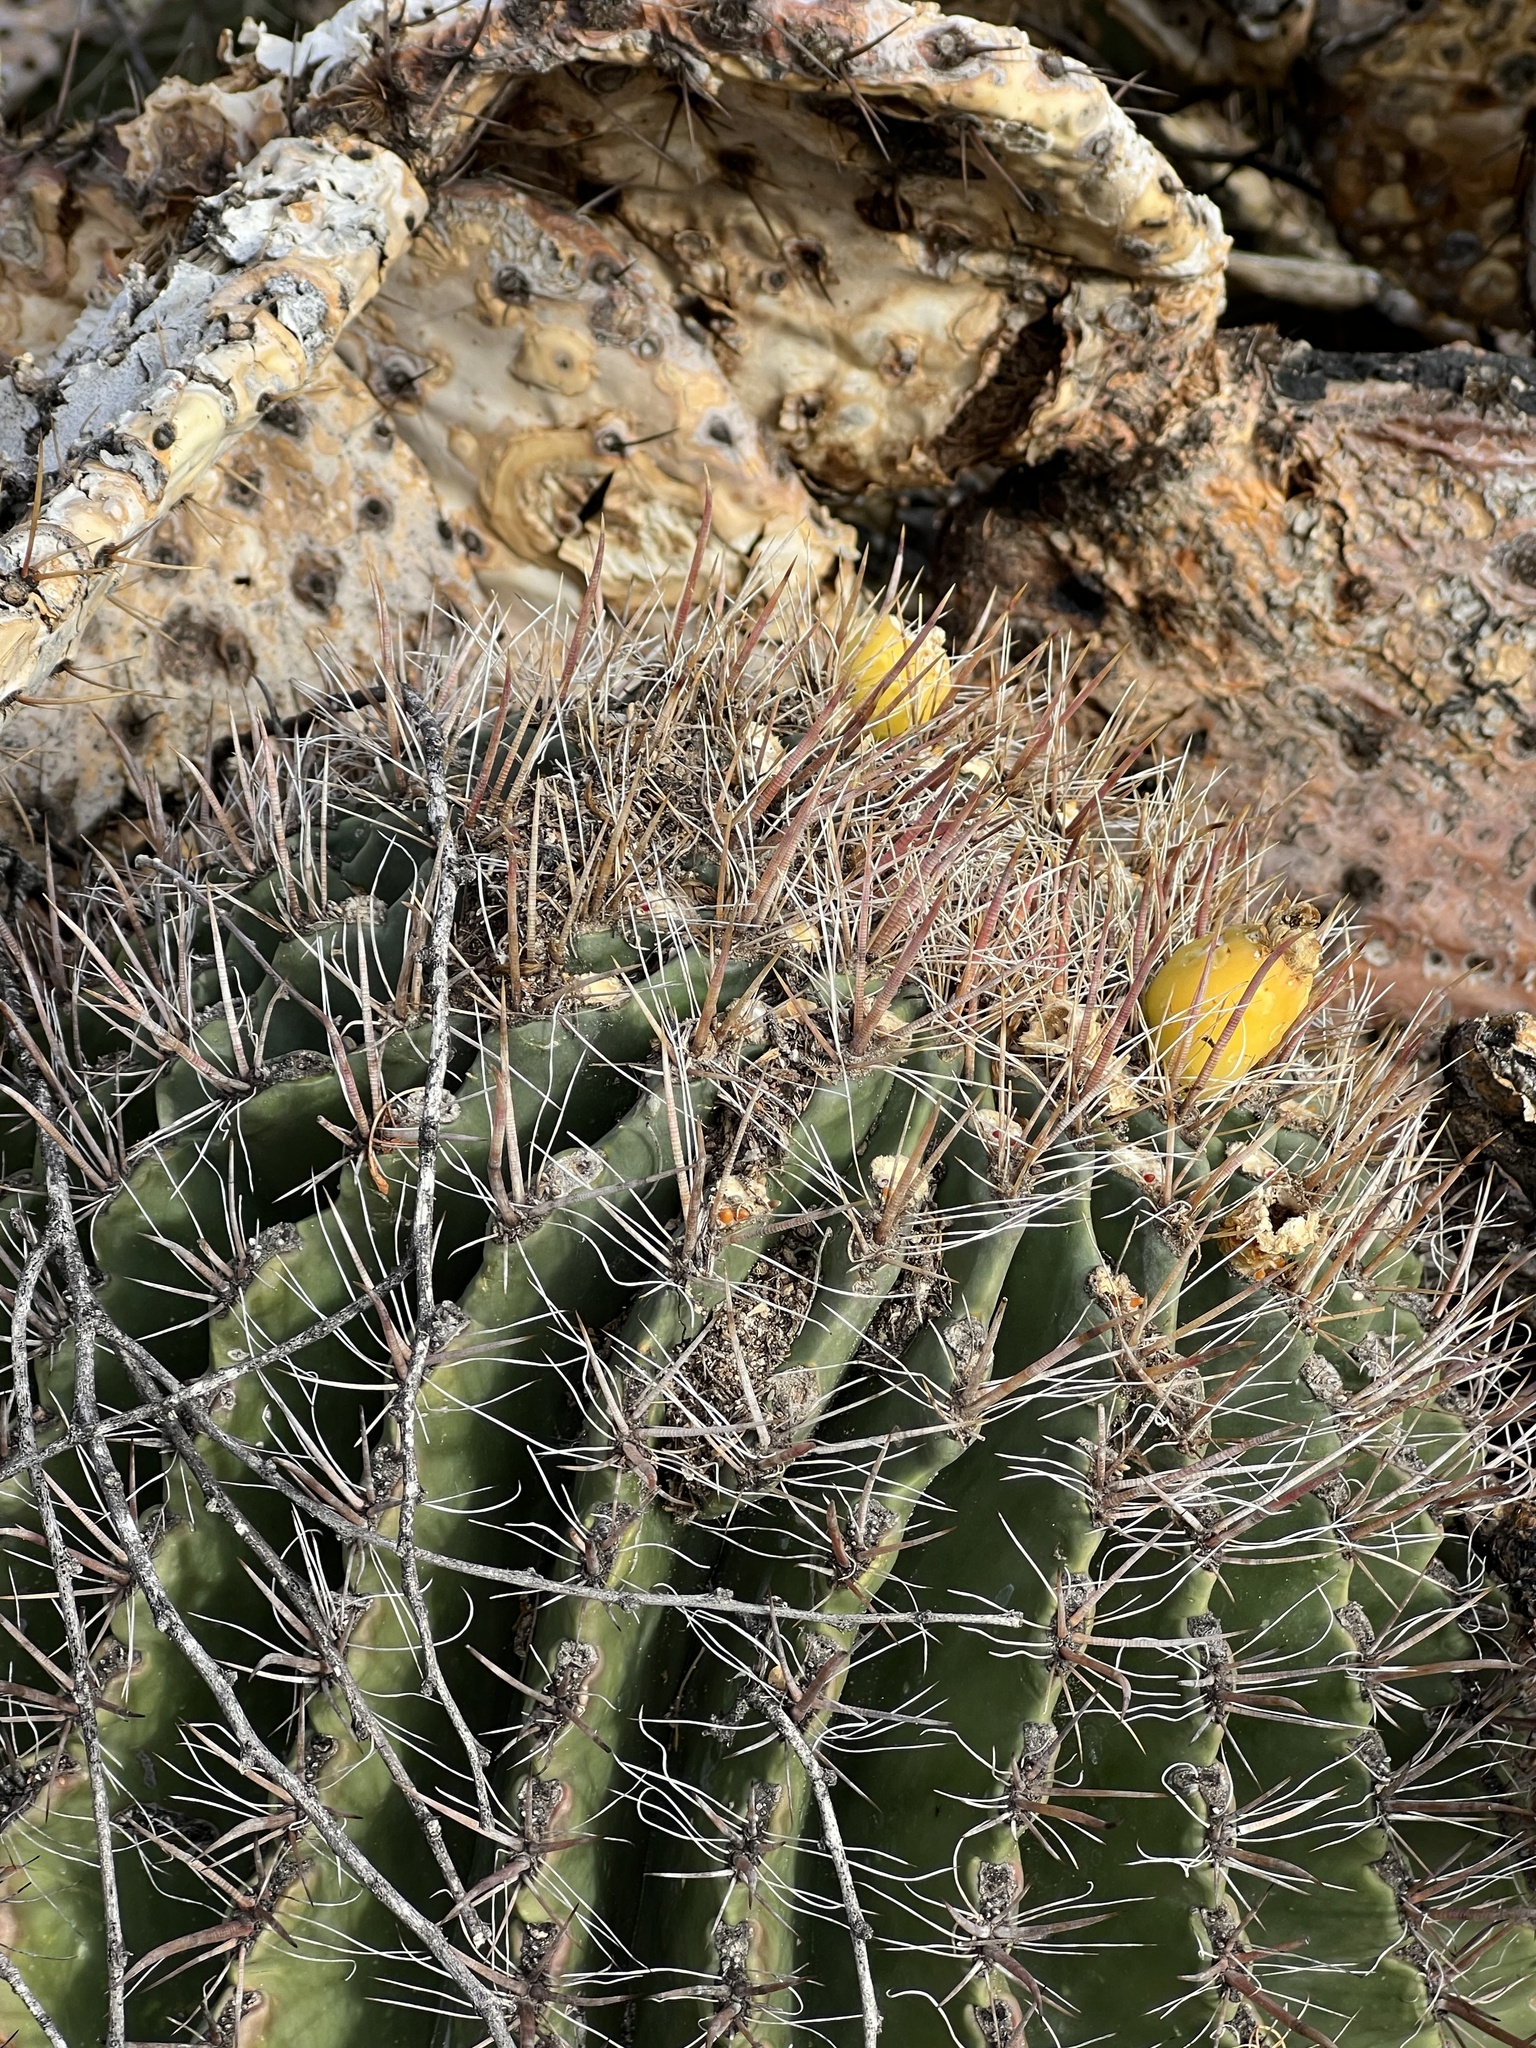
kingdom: Plantae
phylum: Tracheophyta
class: Magnoliopsida
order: Caryophyllales
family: Cactaceae
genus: Ferocactus
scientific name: Ferocactus wislizeni
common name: Candy barrel cactus
